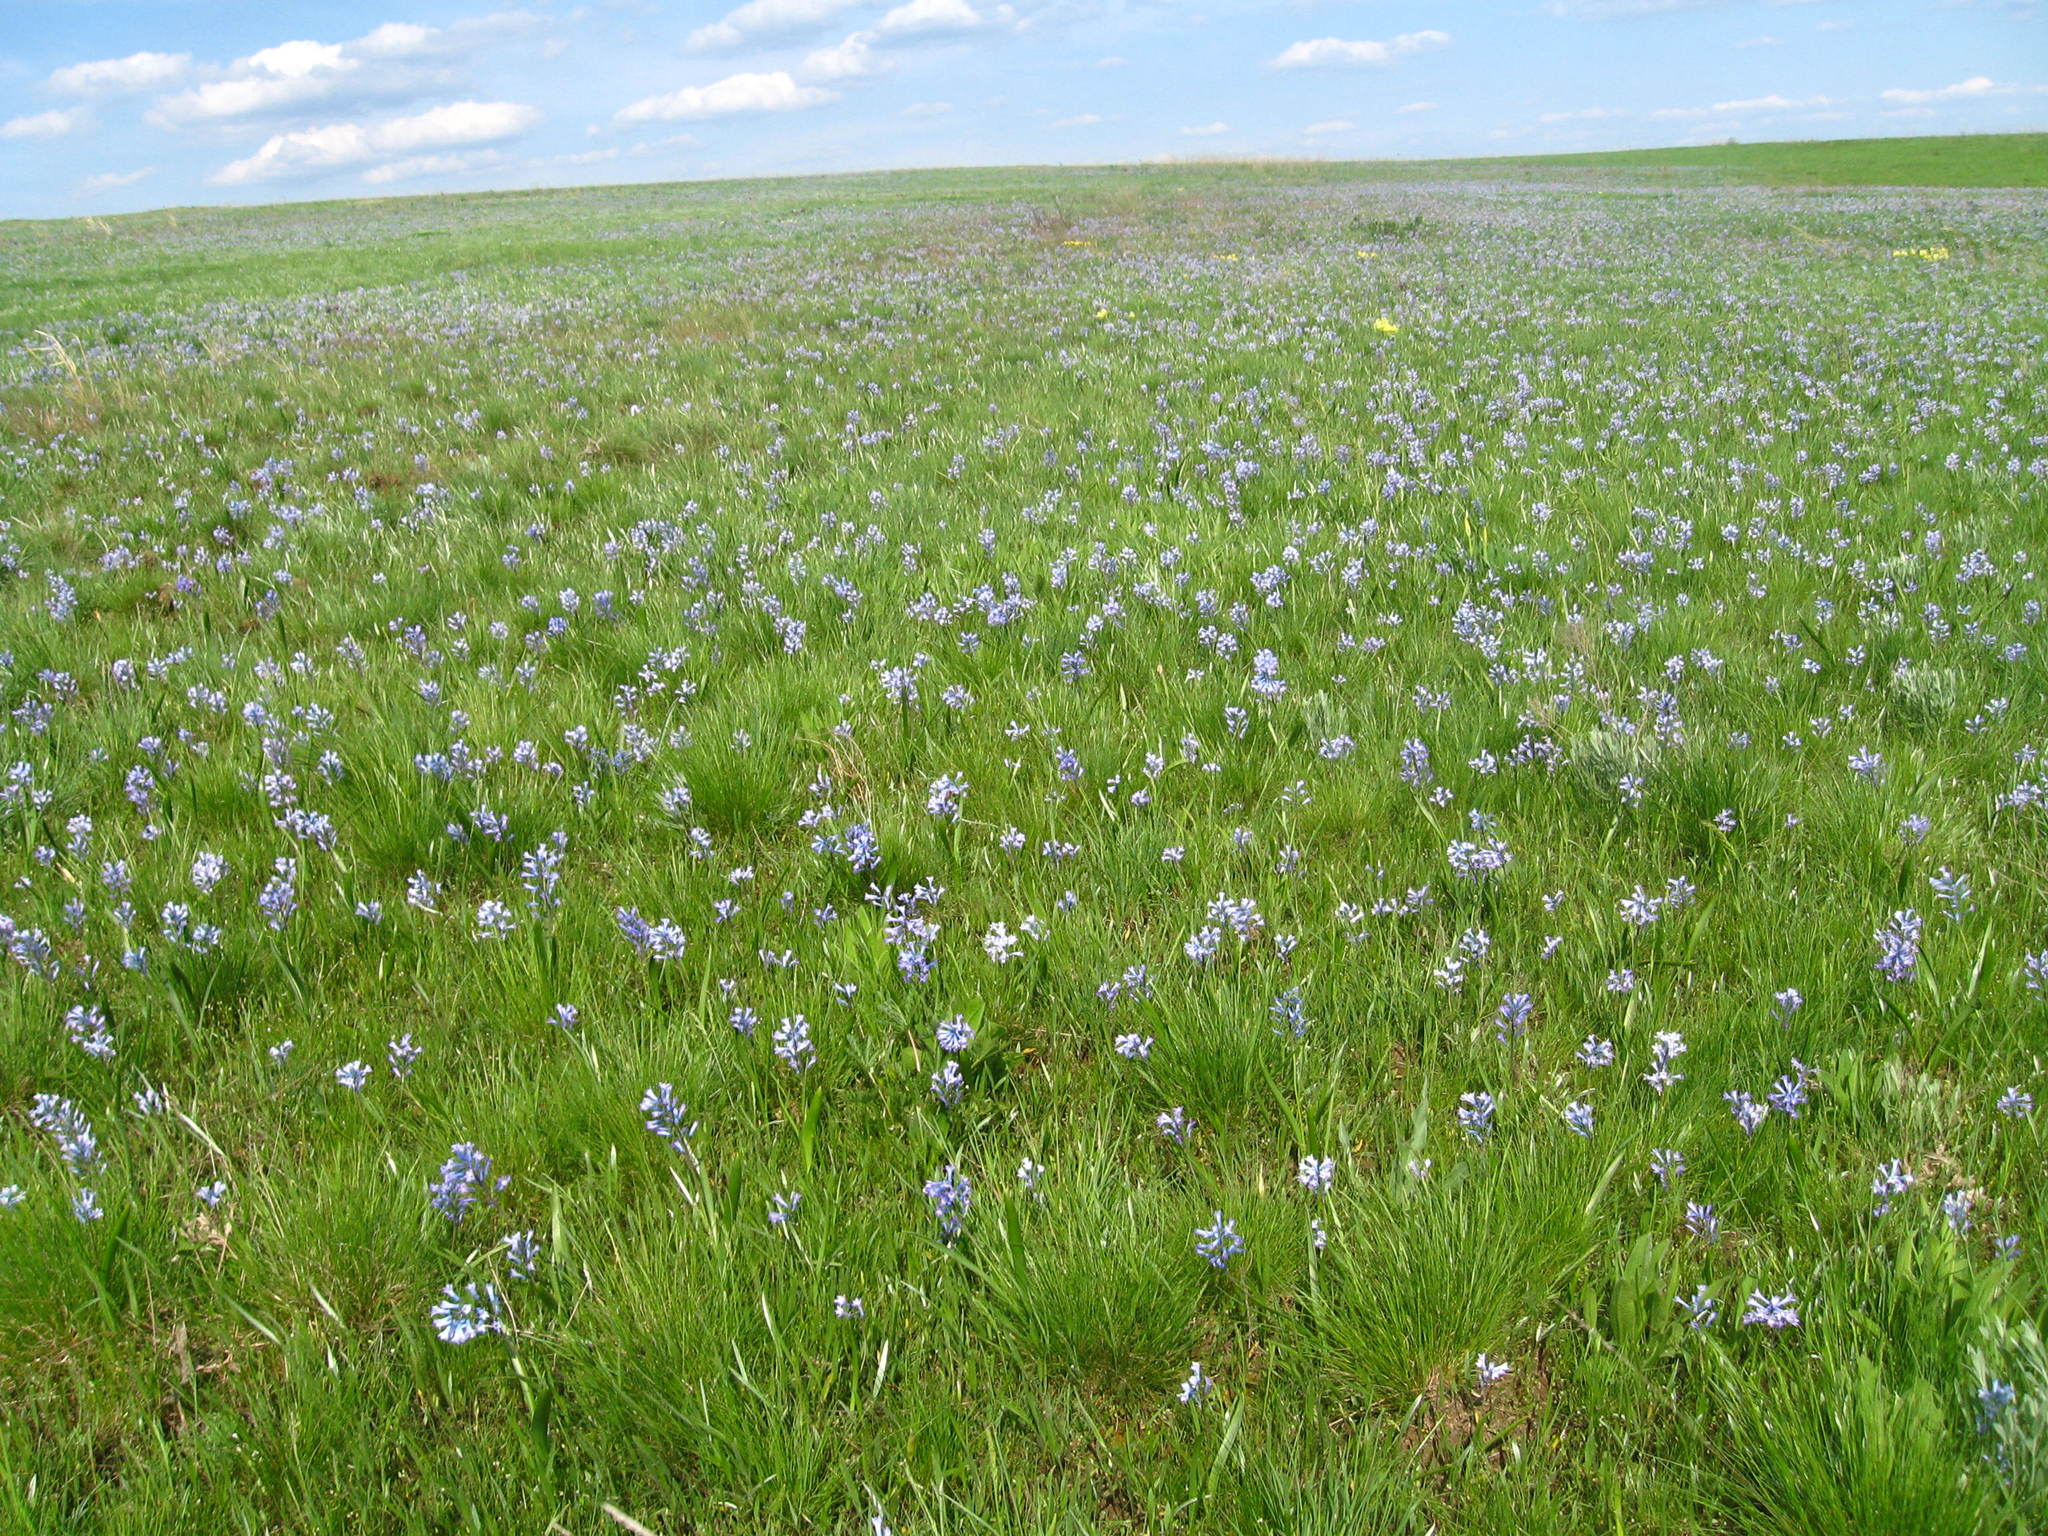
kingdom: Plantae
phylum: Tracheophyta
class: Liliopsida
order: Asparagales
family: Asparagaceae
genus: Hyacinthella
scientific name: Hyacinthella pallasiana
